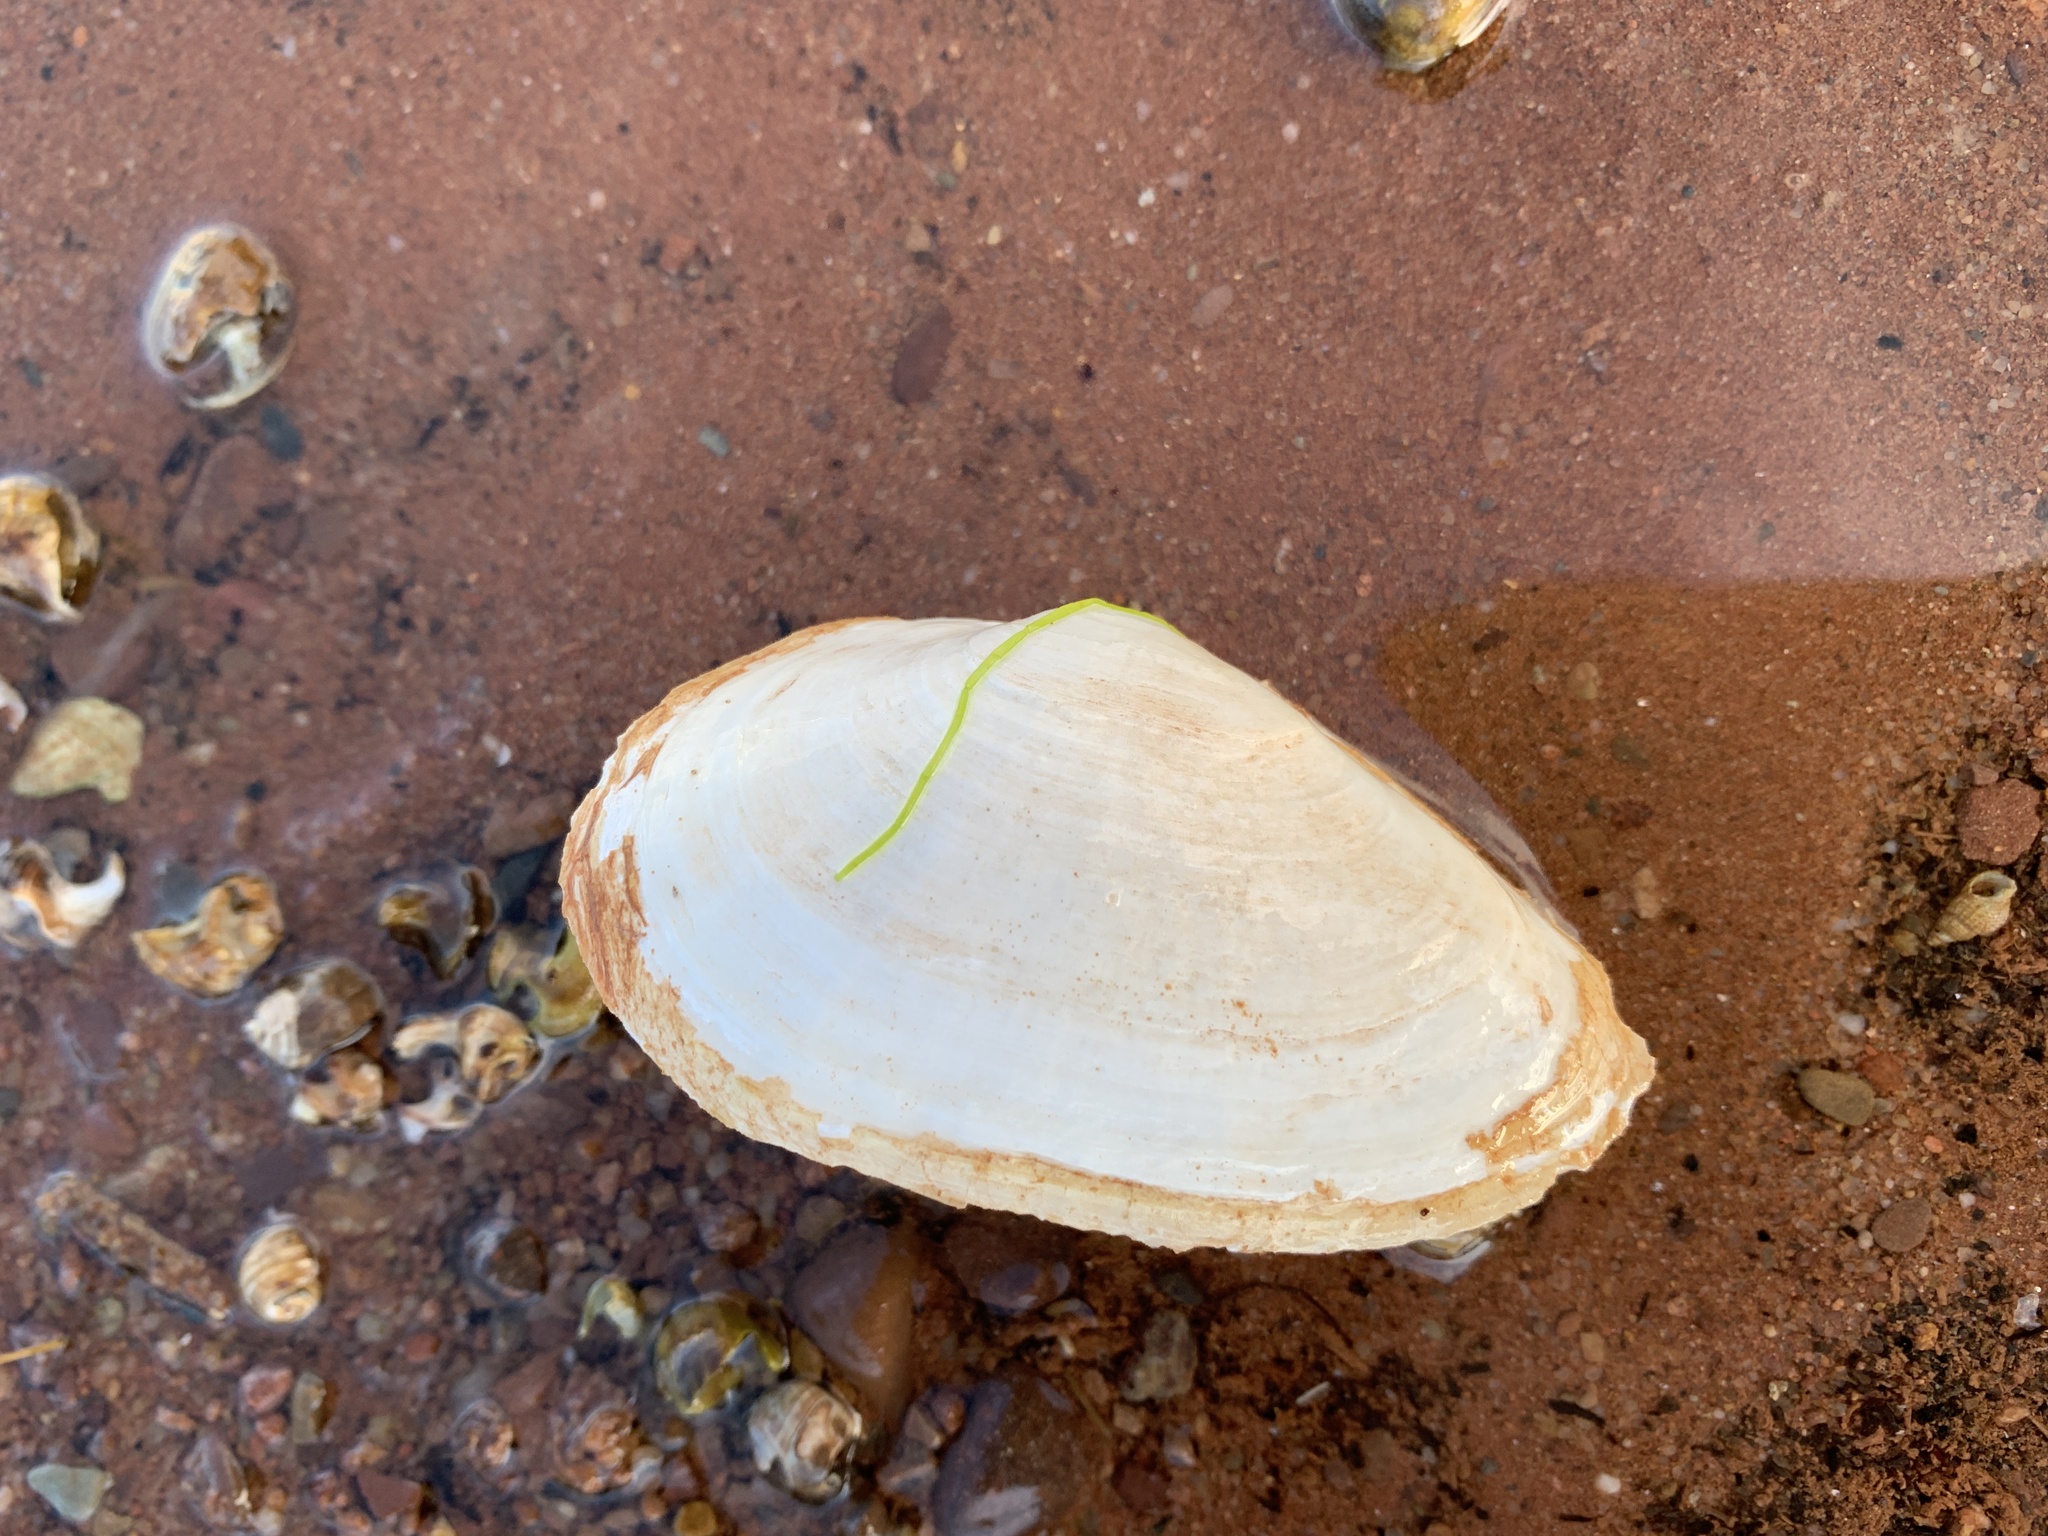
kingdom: Animalia
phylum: Mollusca
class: Bivalvia
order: Myida
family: Myidae
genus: Mya
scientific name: Mya arenaria
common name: Soft-shelled clam
